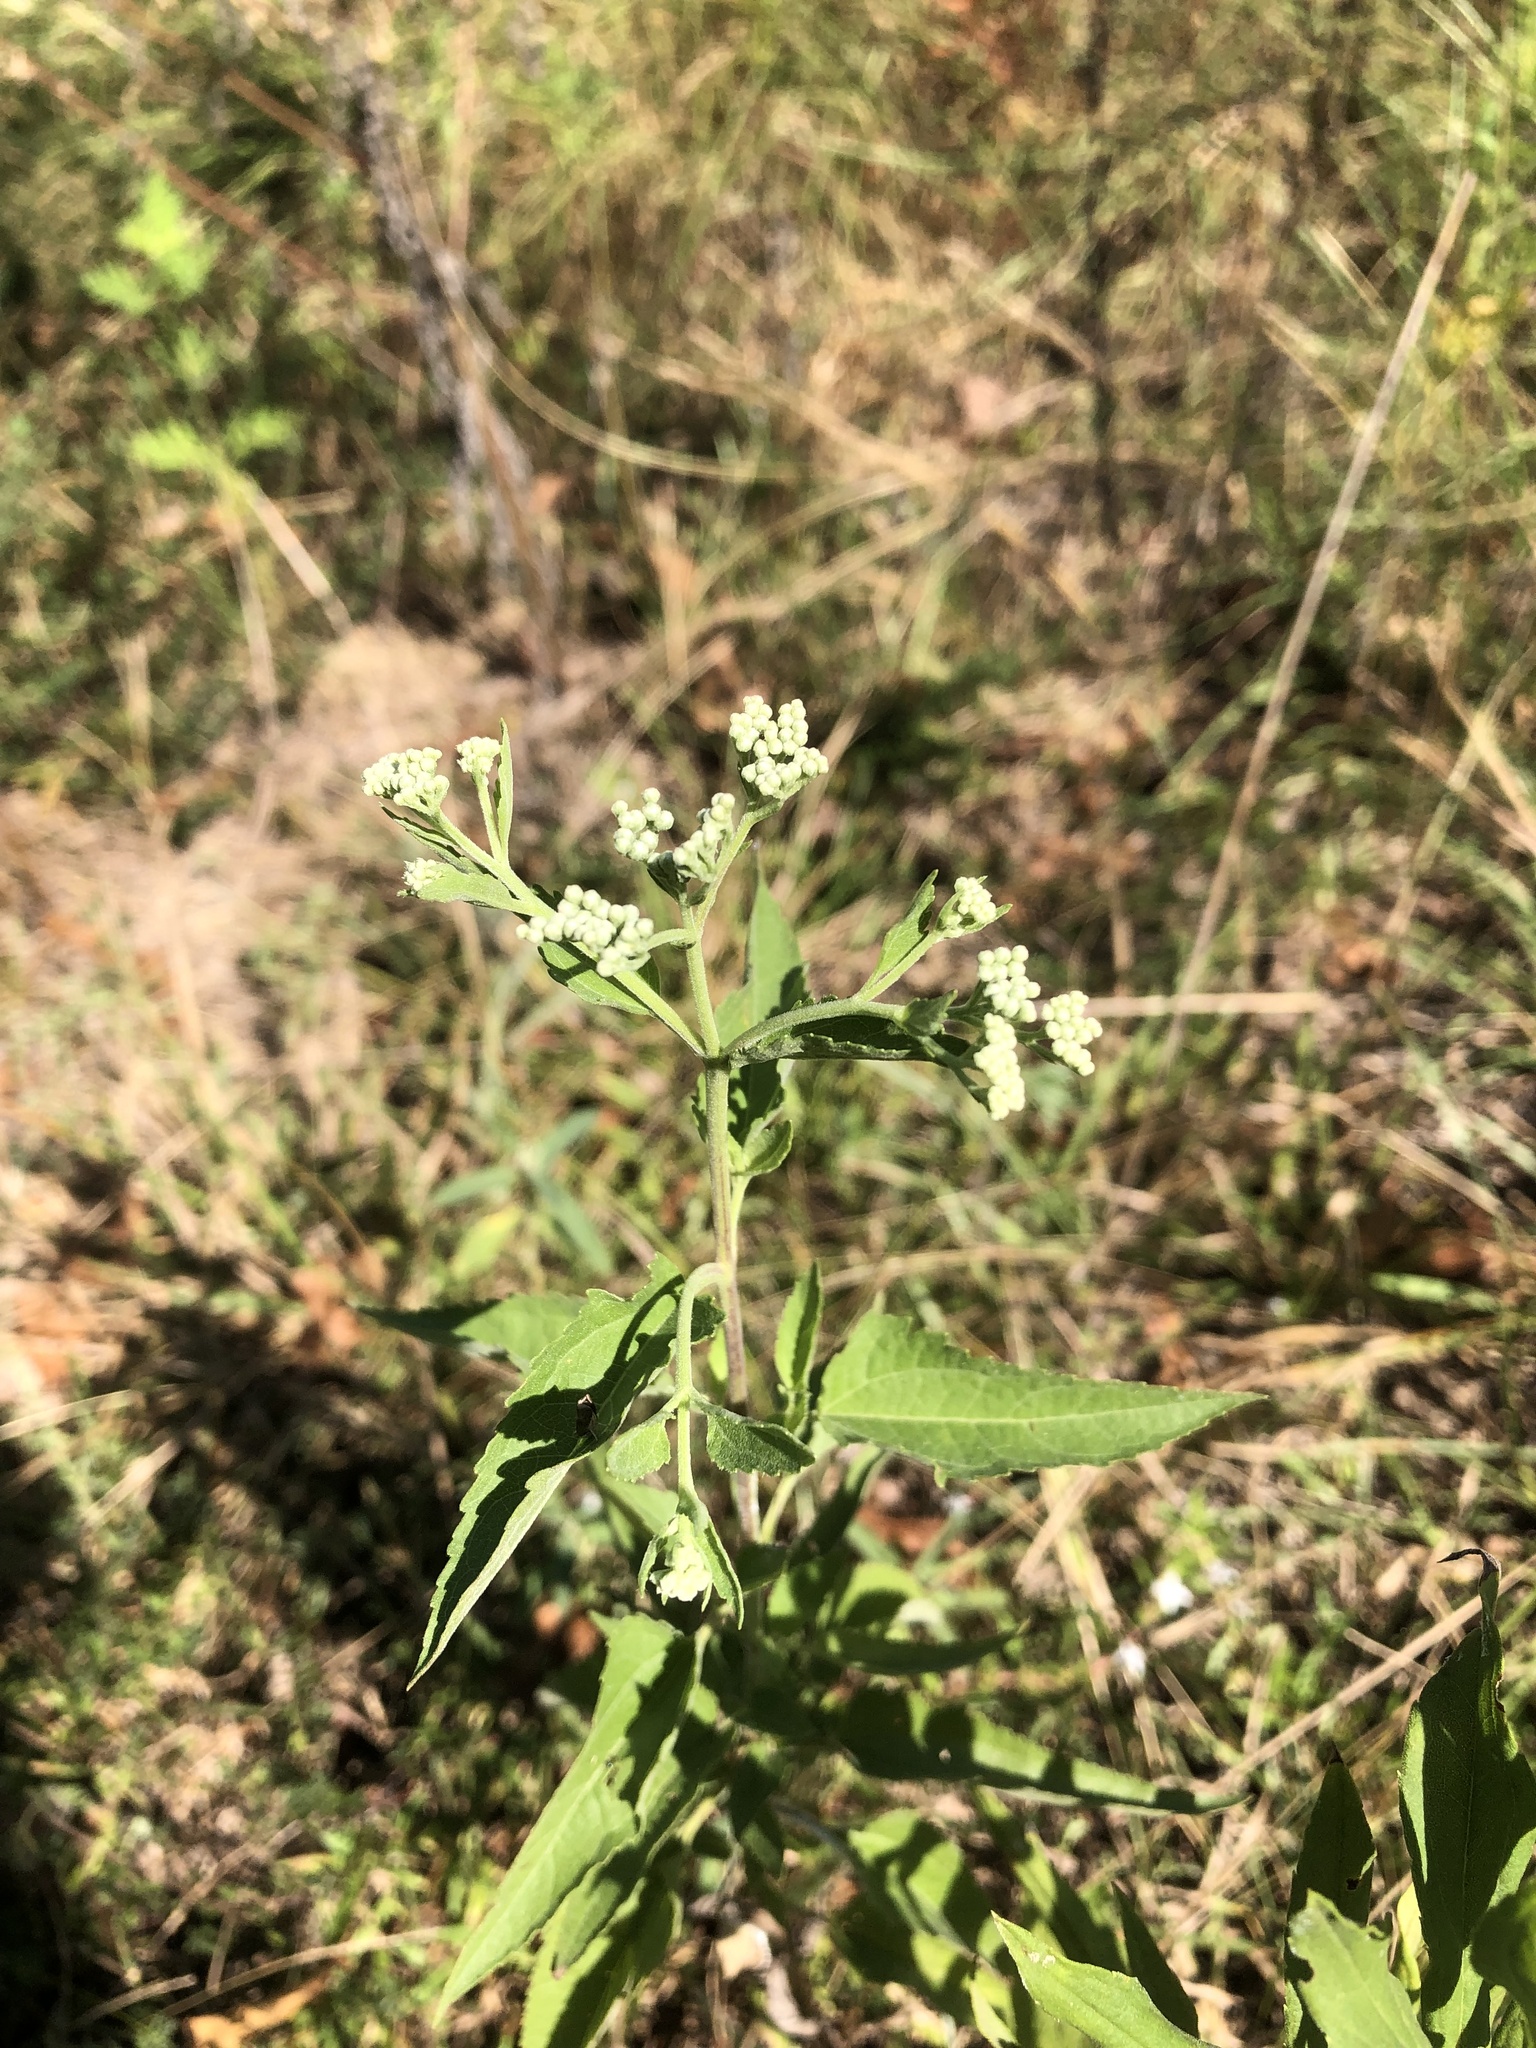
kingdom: Plantae
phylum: Tracheophyta
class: Magnoliopsida
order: Asterales
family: Asteraceae
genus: Eupatorium
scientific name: Eupatorium serotinum
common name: Late boneset
